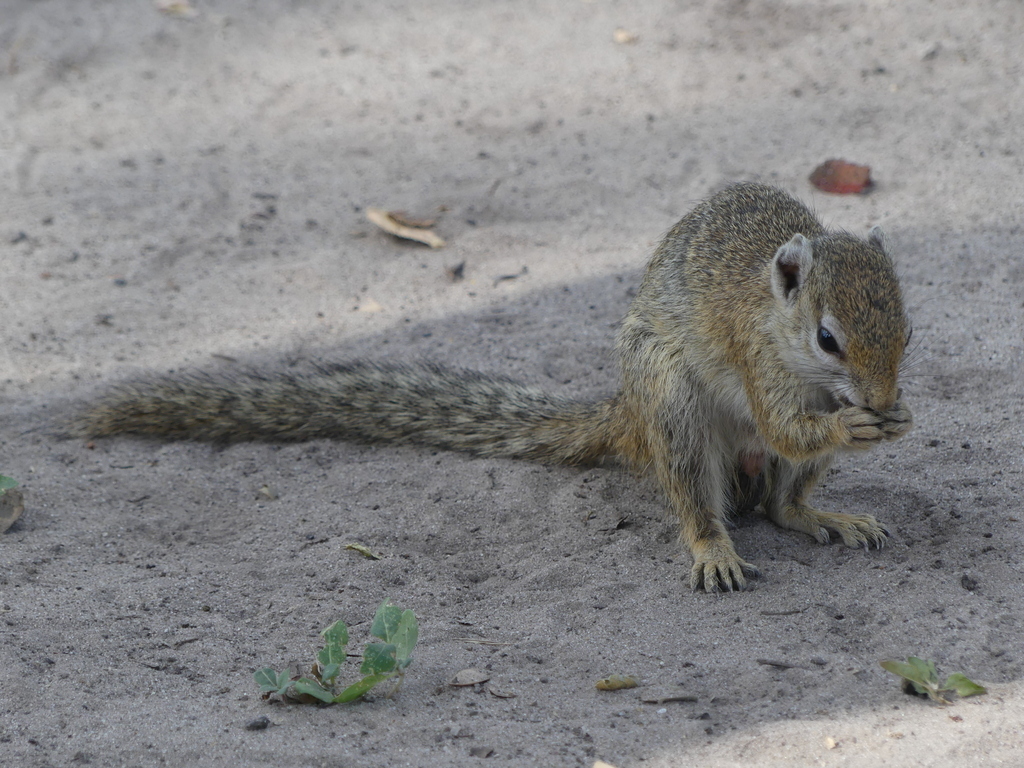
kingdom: Animalia
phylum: Chordata
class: Mammalia
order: Rodentia
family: Sciuridae
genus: Paraxerus
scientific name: Paraxerus cepapi
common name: Smith's bush squirrel
